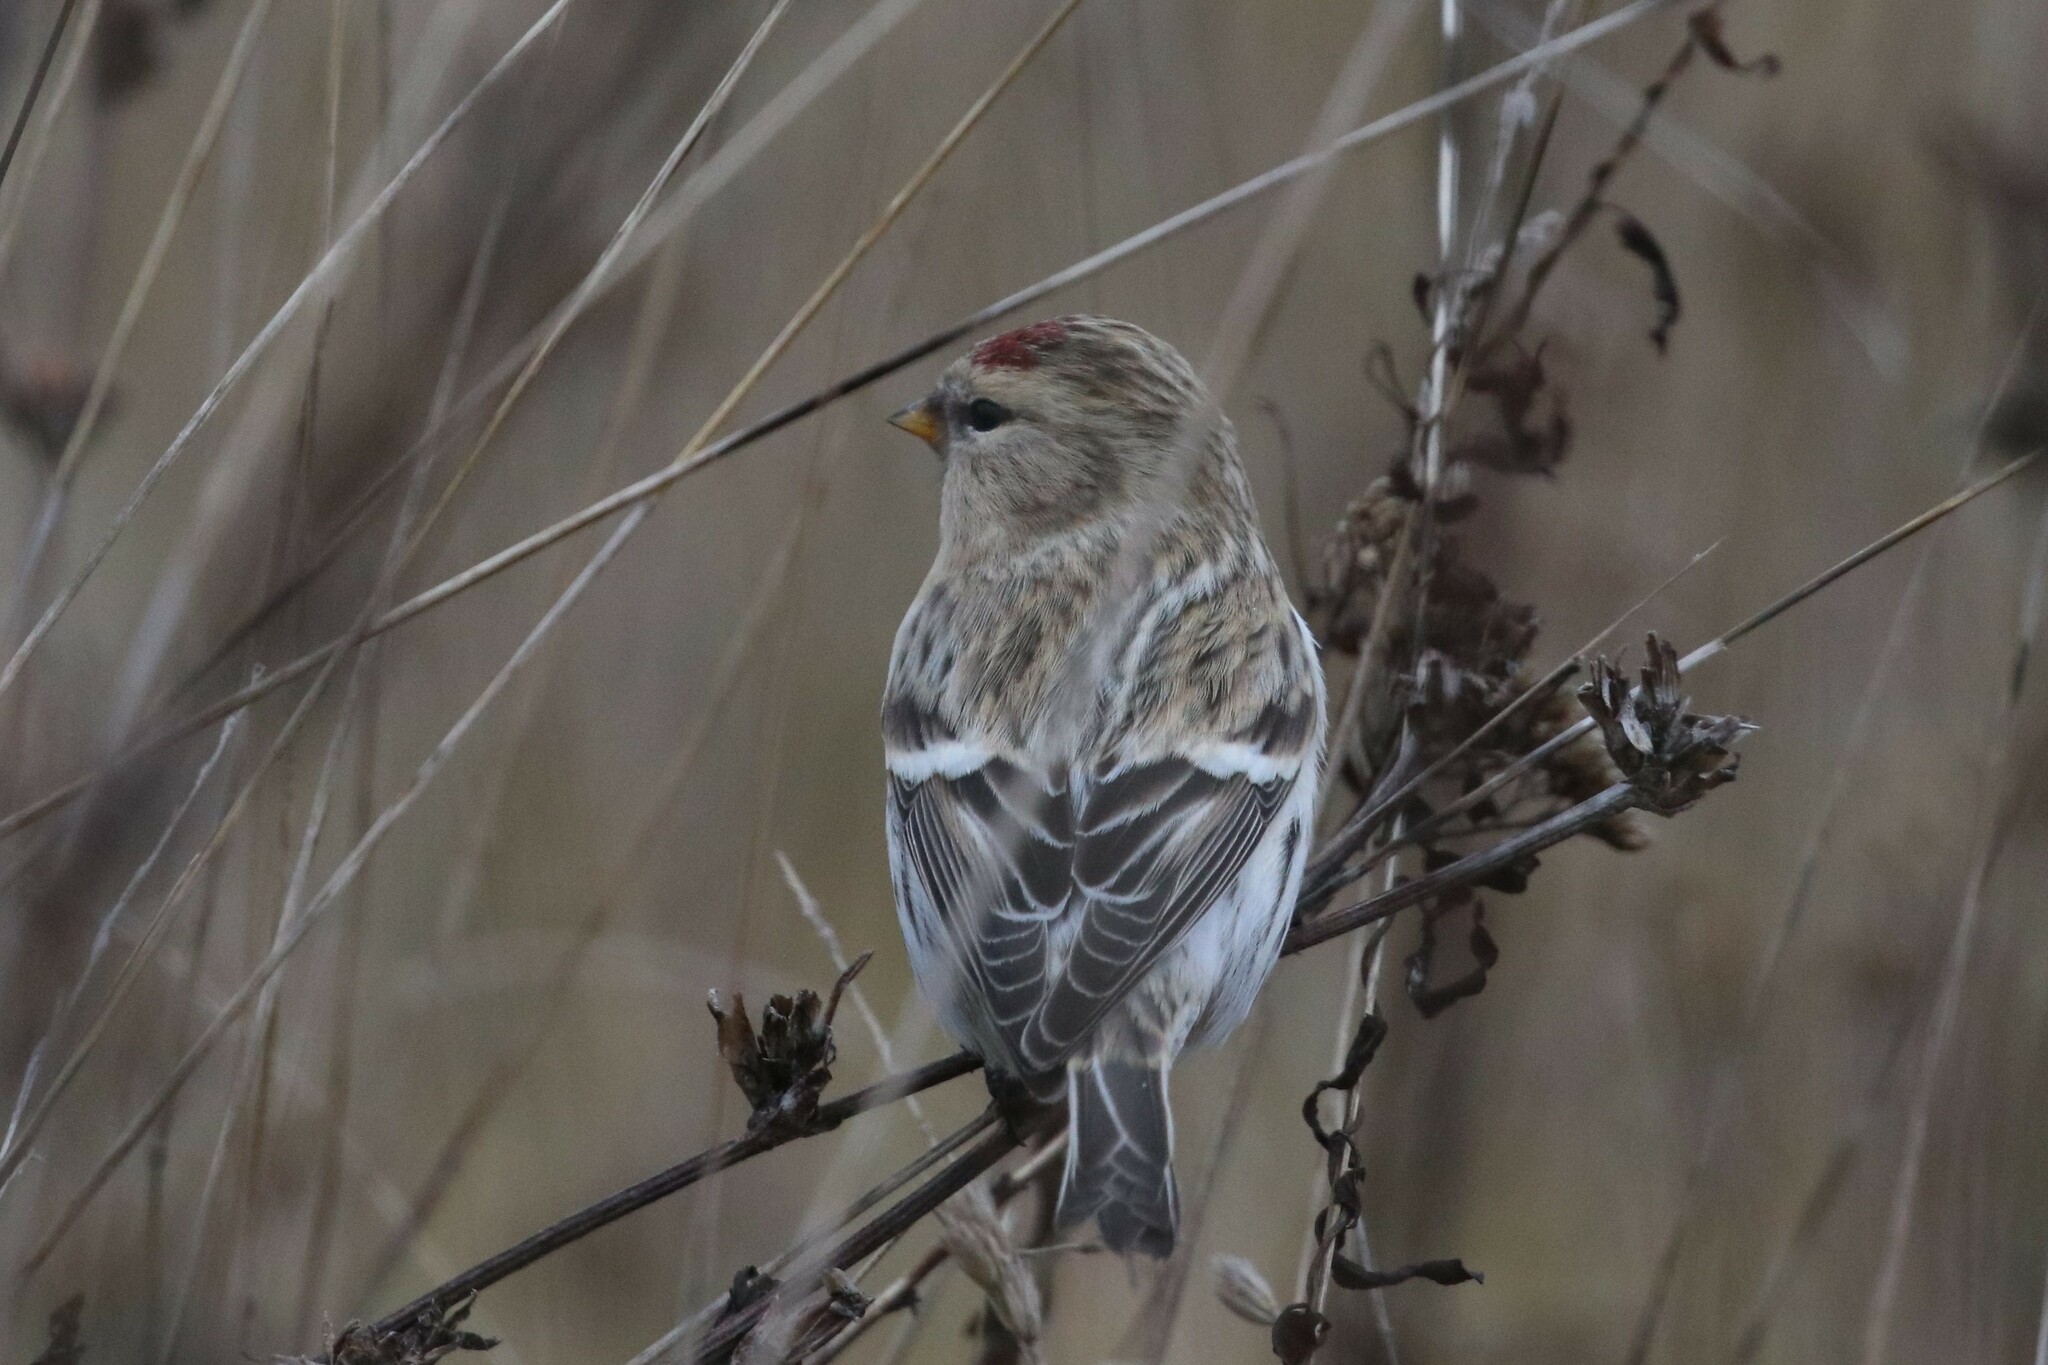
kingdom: Animalia
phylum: Chordata
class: Aves
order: Passeriformes
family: Fringillidae
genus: Acanthis
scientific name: Acanthis flammea
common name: Common redpoll
